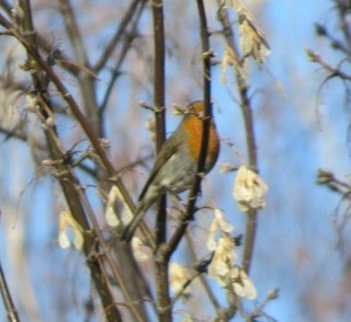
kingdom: Animalia
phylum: Chordata
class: Aves
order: Passeriformes
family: Muscicapidae
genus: Erithacus
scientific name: Erithacus rubecula
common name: European robin
